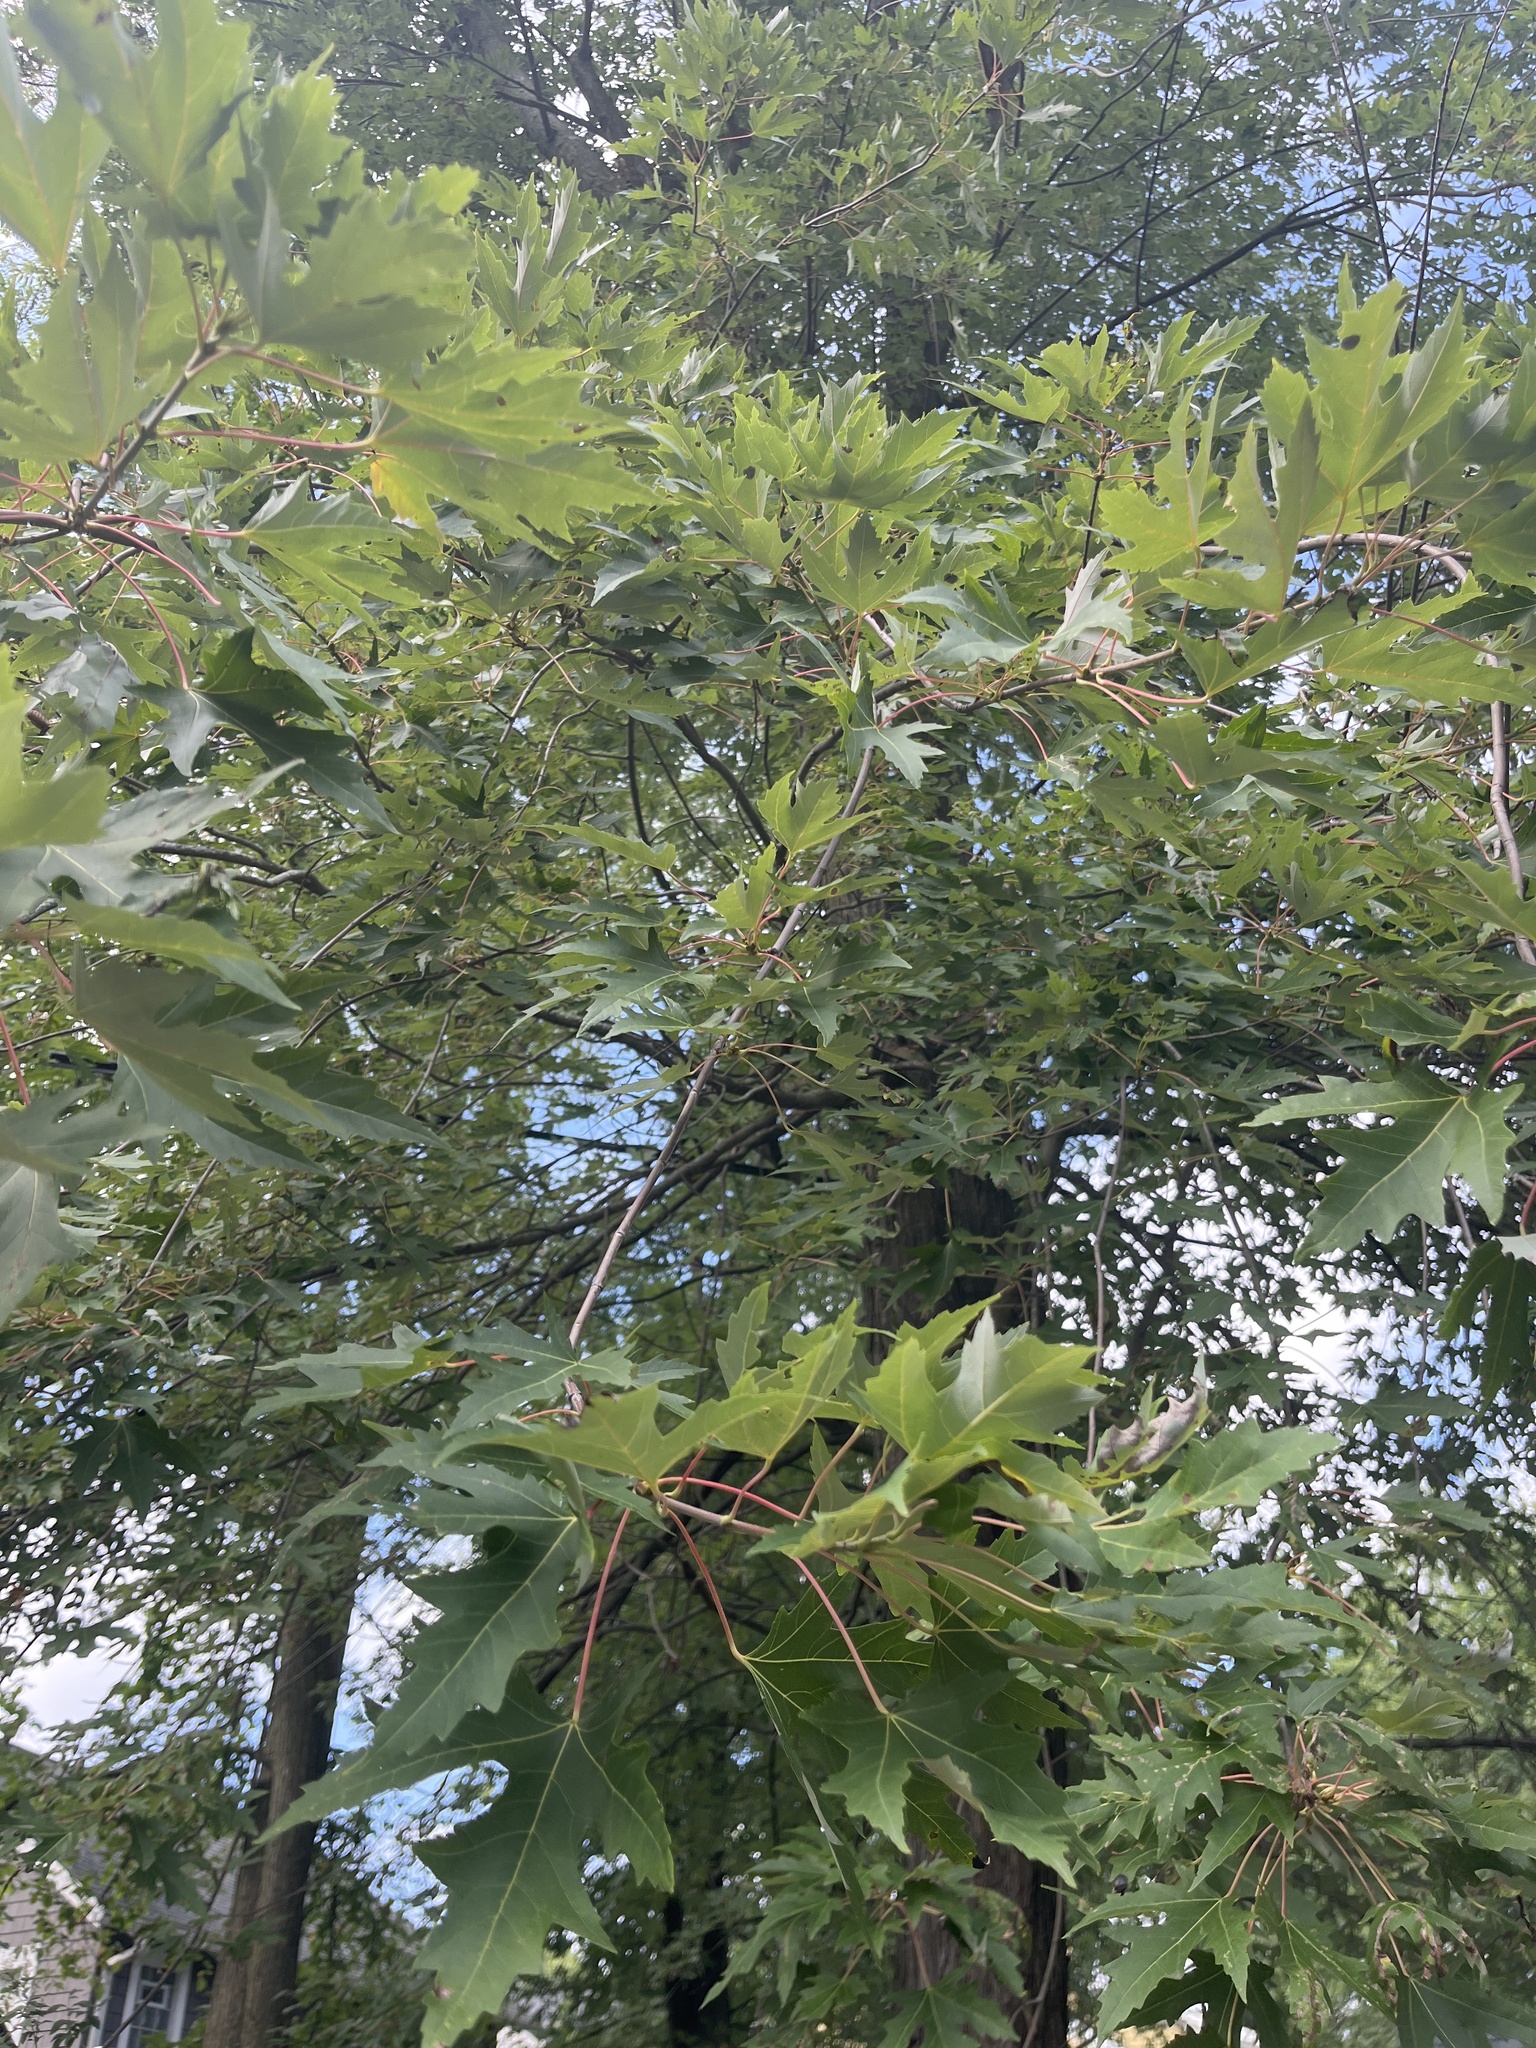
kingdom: Plantae
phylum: Tracheophyta
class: Magnoliopsida
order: Sapindales
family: Sapindaceae
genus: Acer
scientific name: Acer saccharinum
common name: Silver maple
